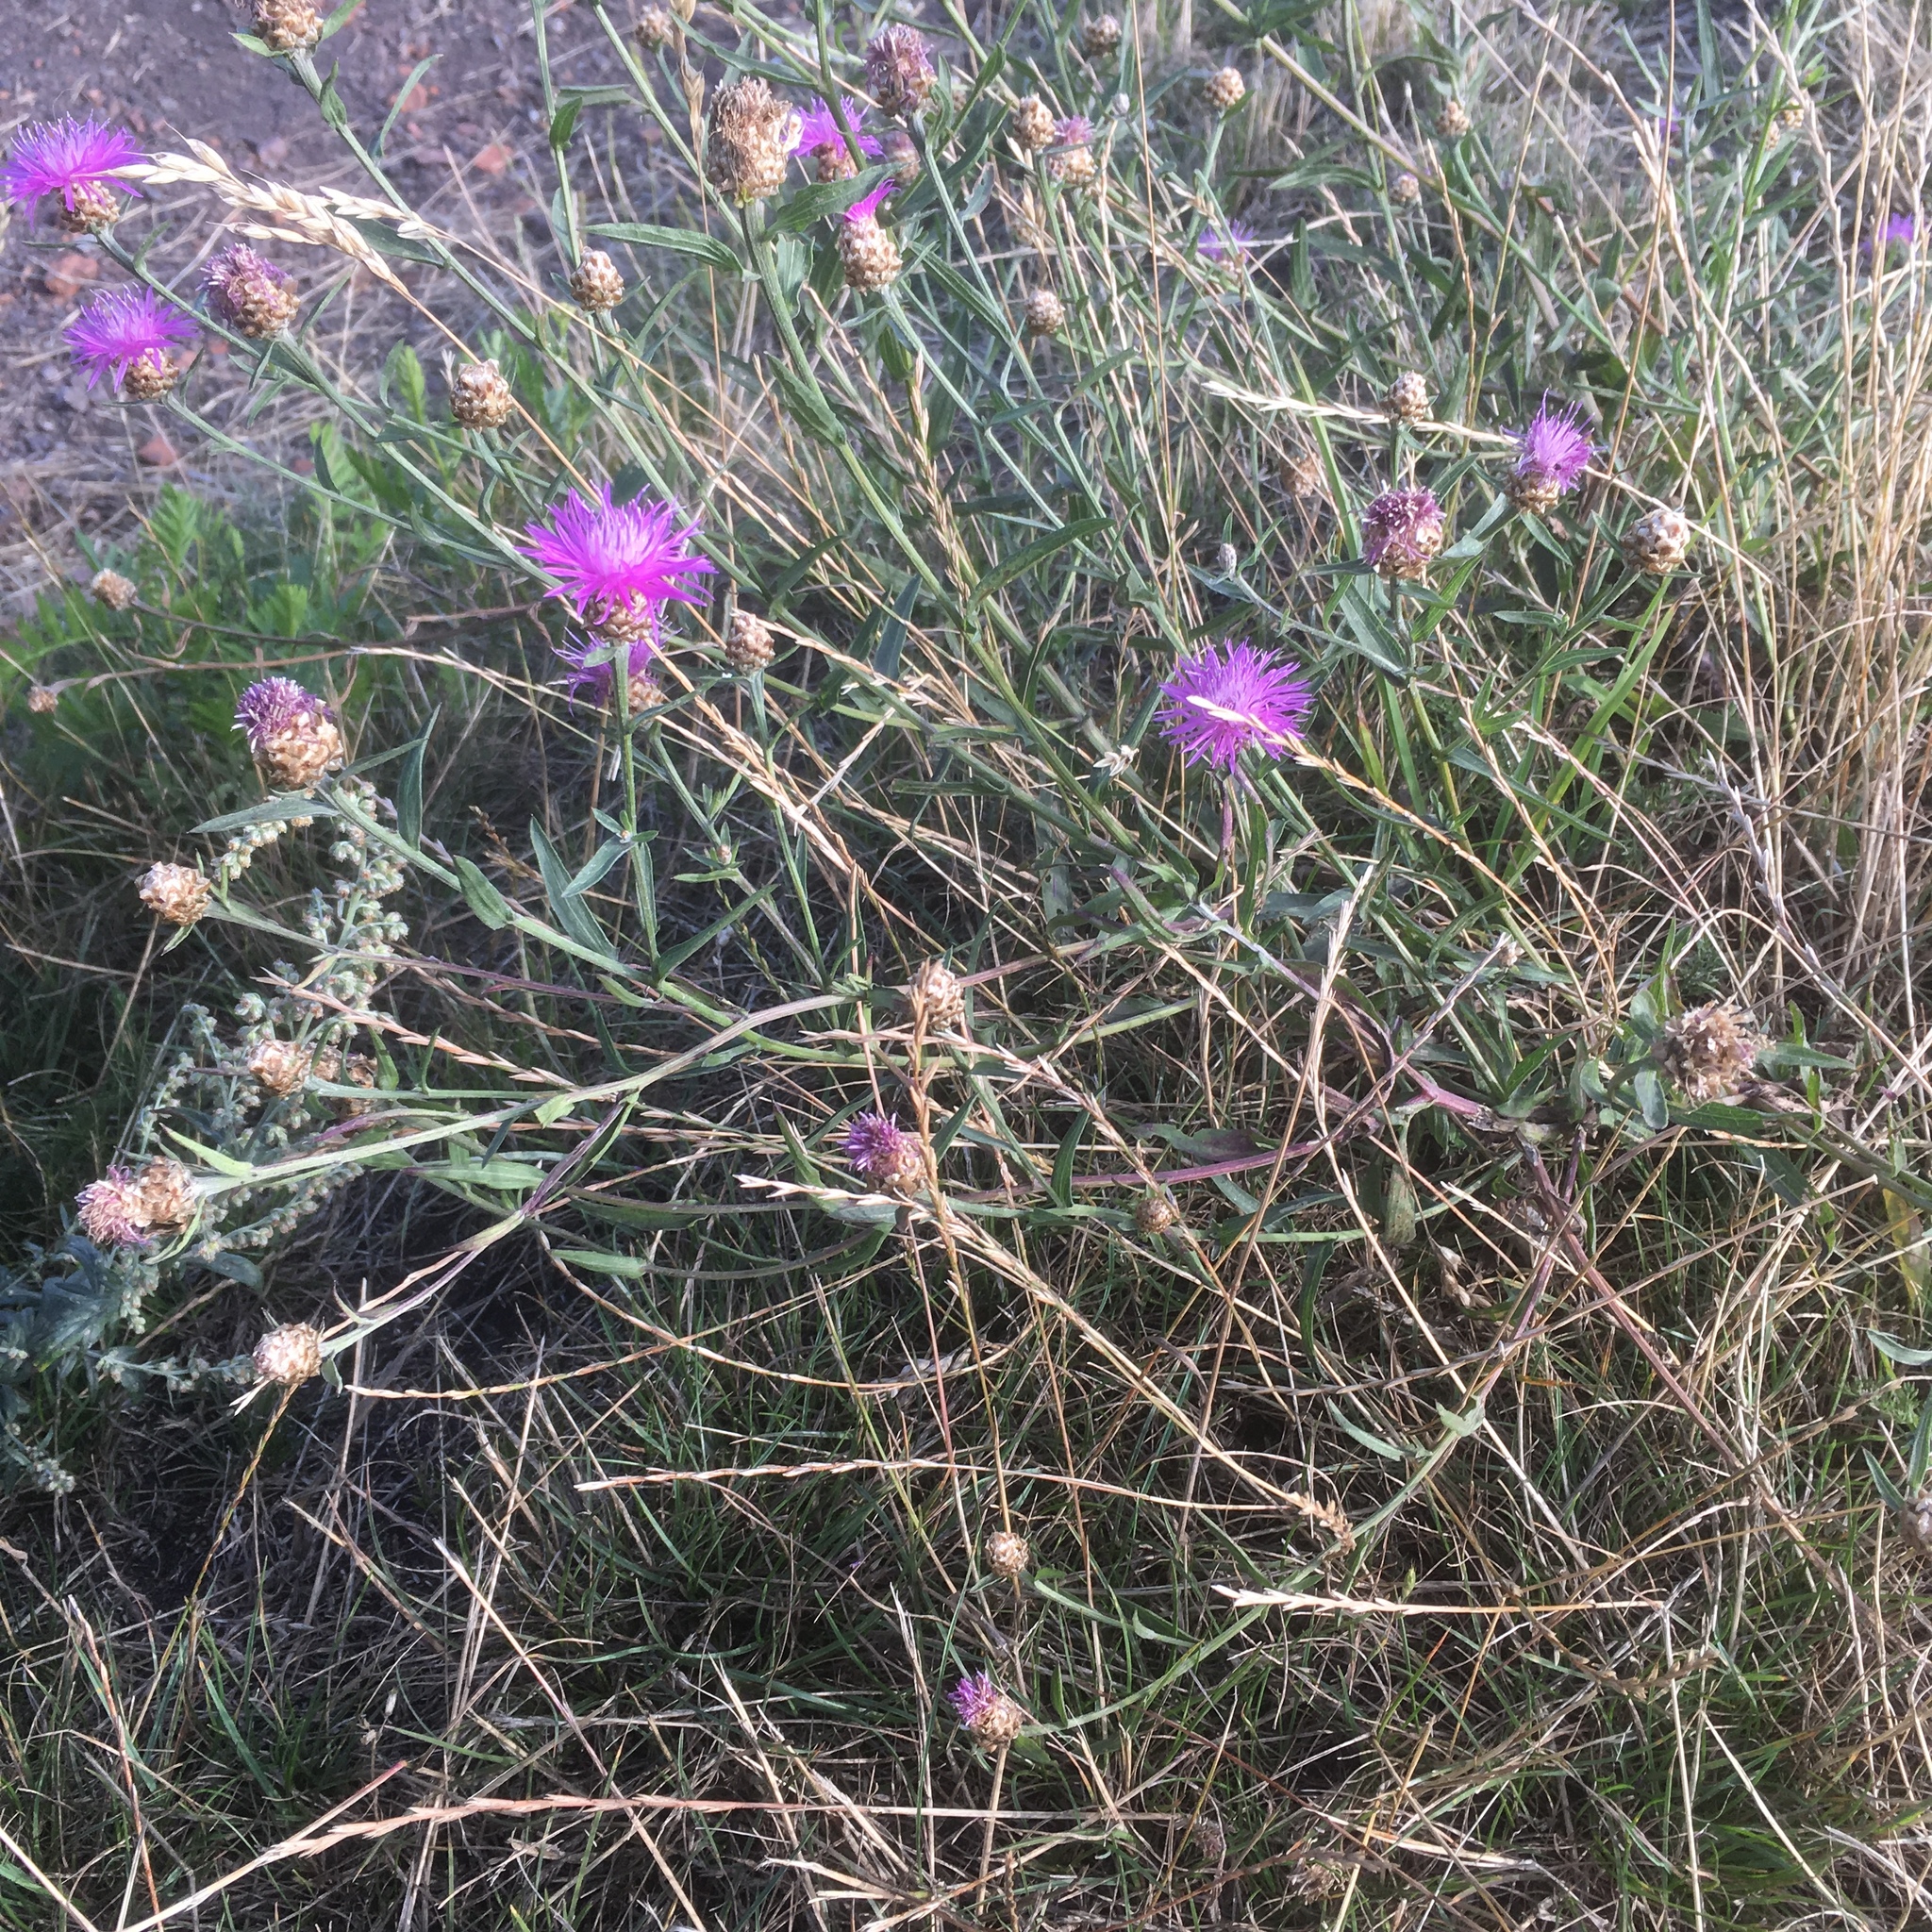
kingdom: Plantae
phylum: Tracheophyta
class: Magnoliopsida
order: Asterales
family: Asteraceae
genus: Centaurea
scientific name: Centaurea jacea
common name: Brown knapweed
